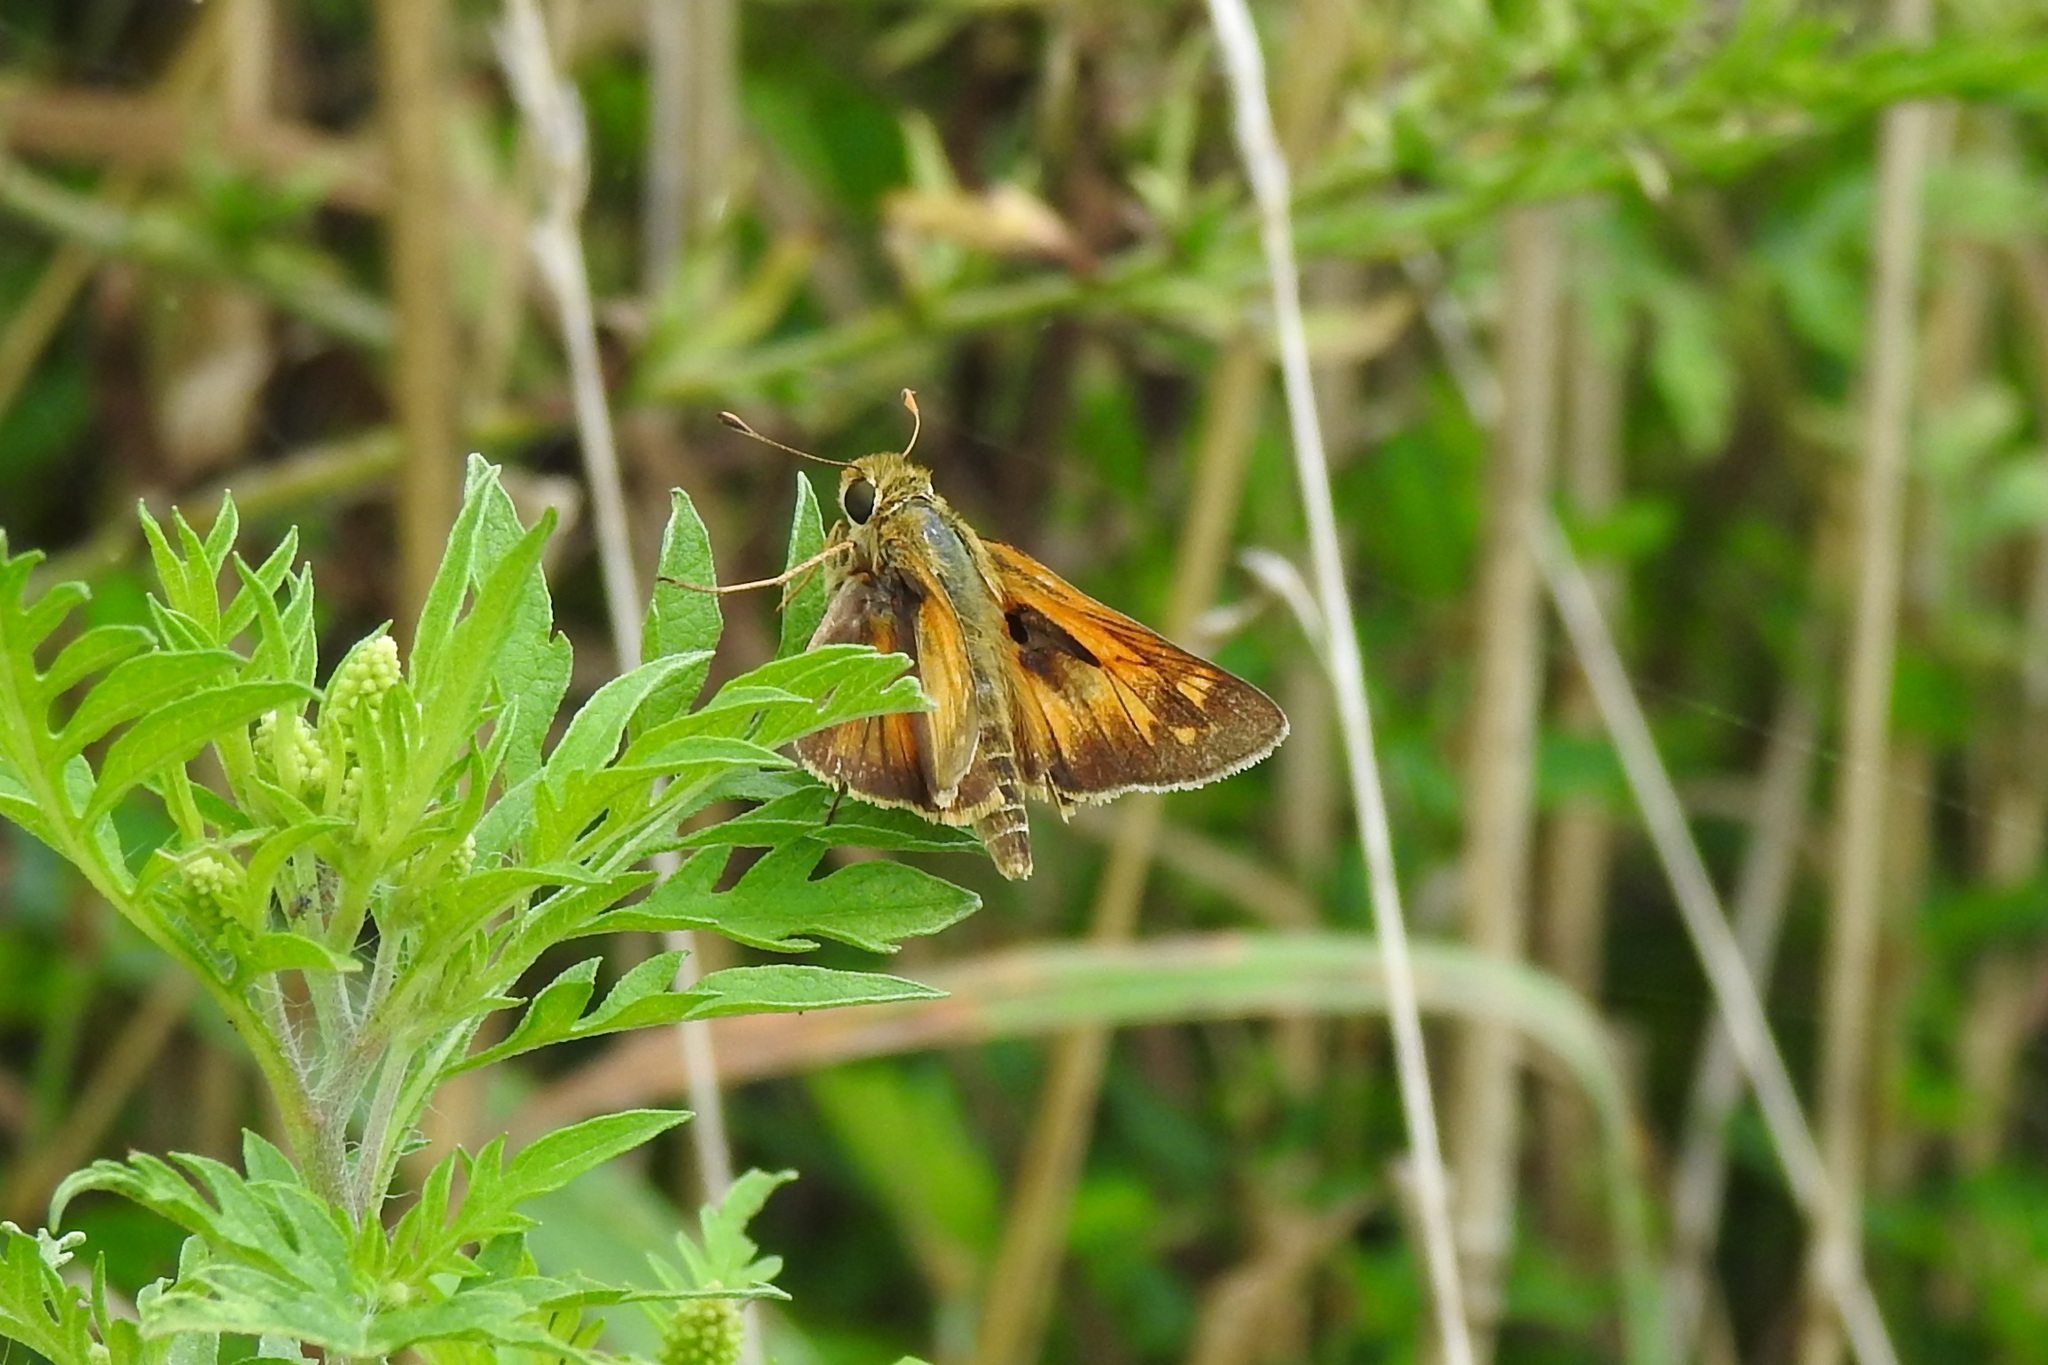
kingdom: Animalia
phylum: Arthropoda
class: Insecta
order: Lepidoptera
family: Hesperiidae
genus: Atalopedes
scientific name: Atalopedes
